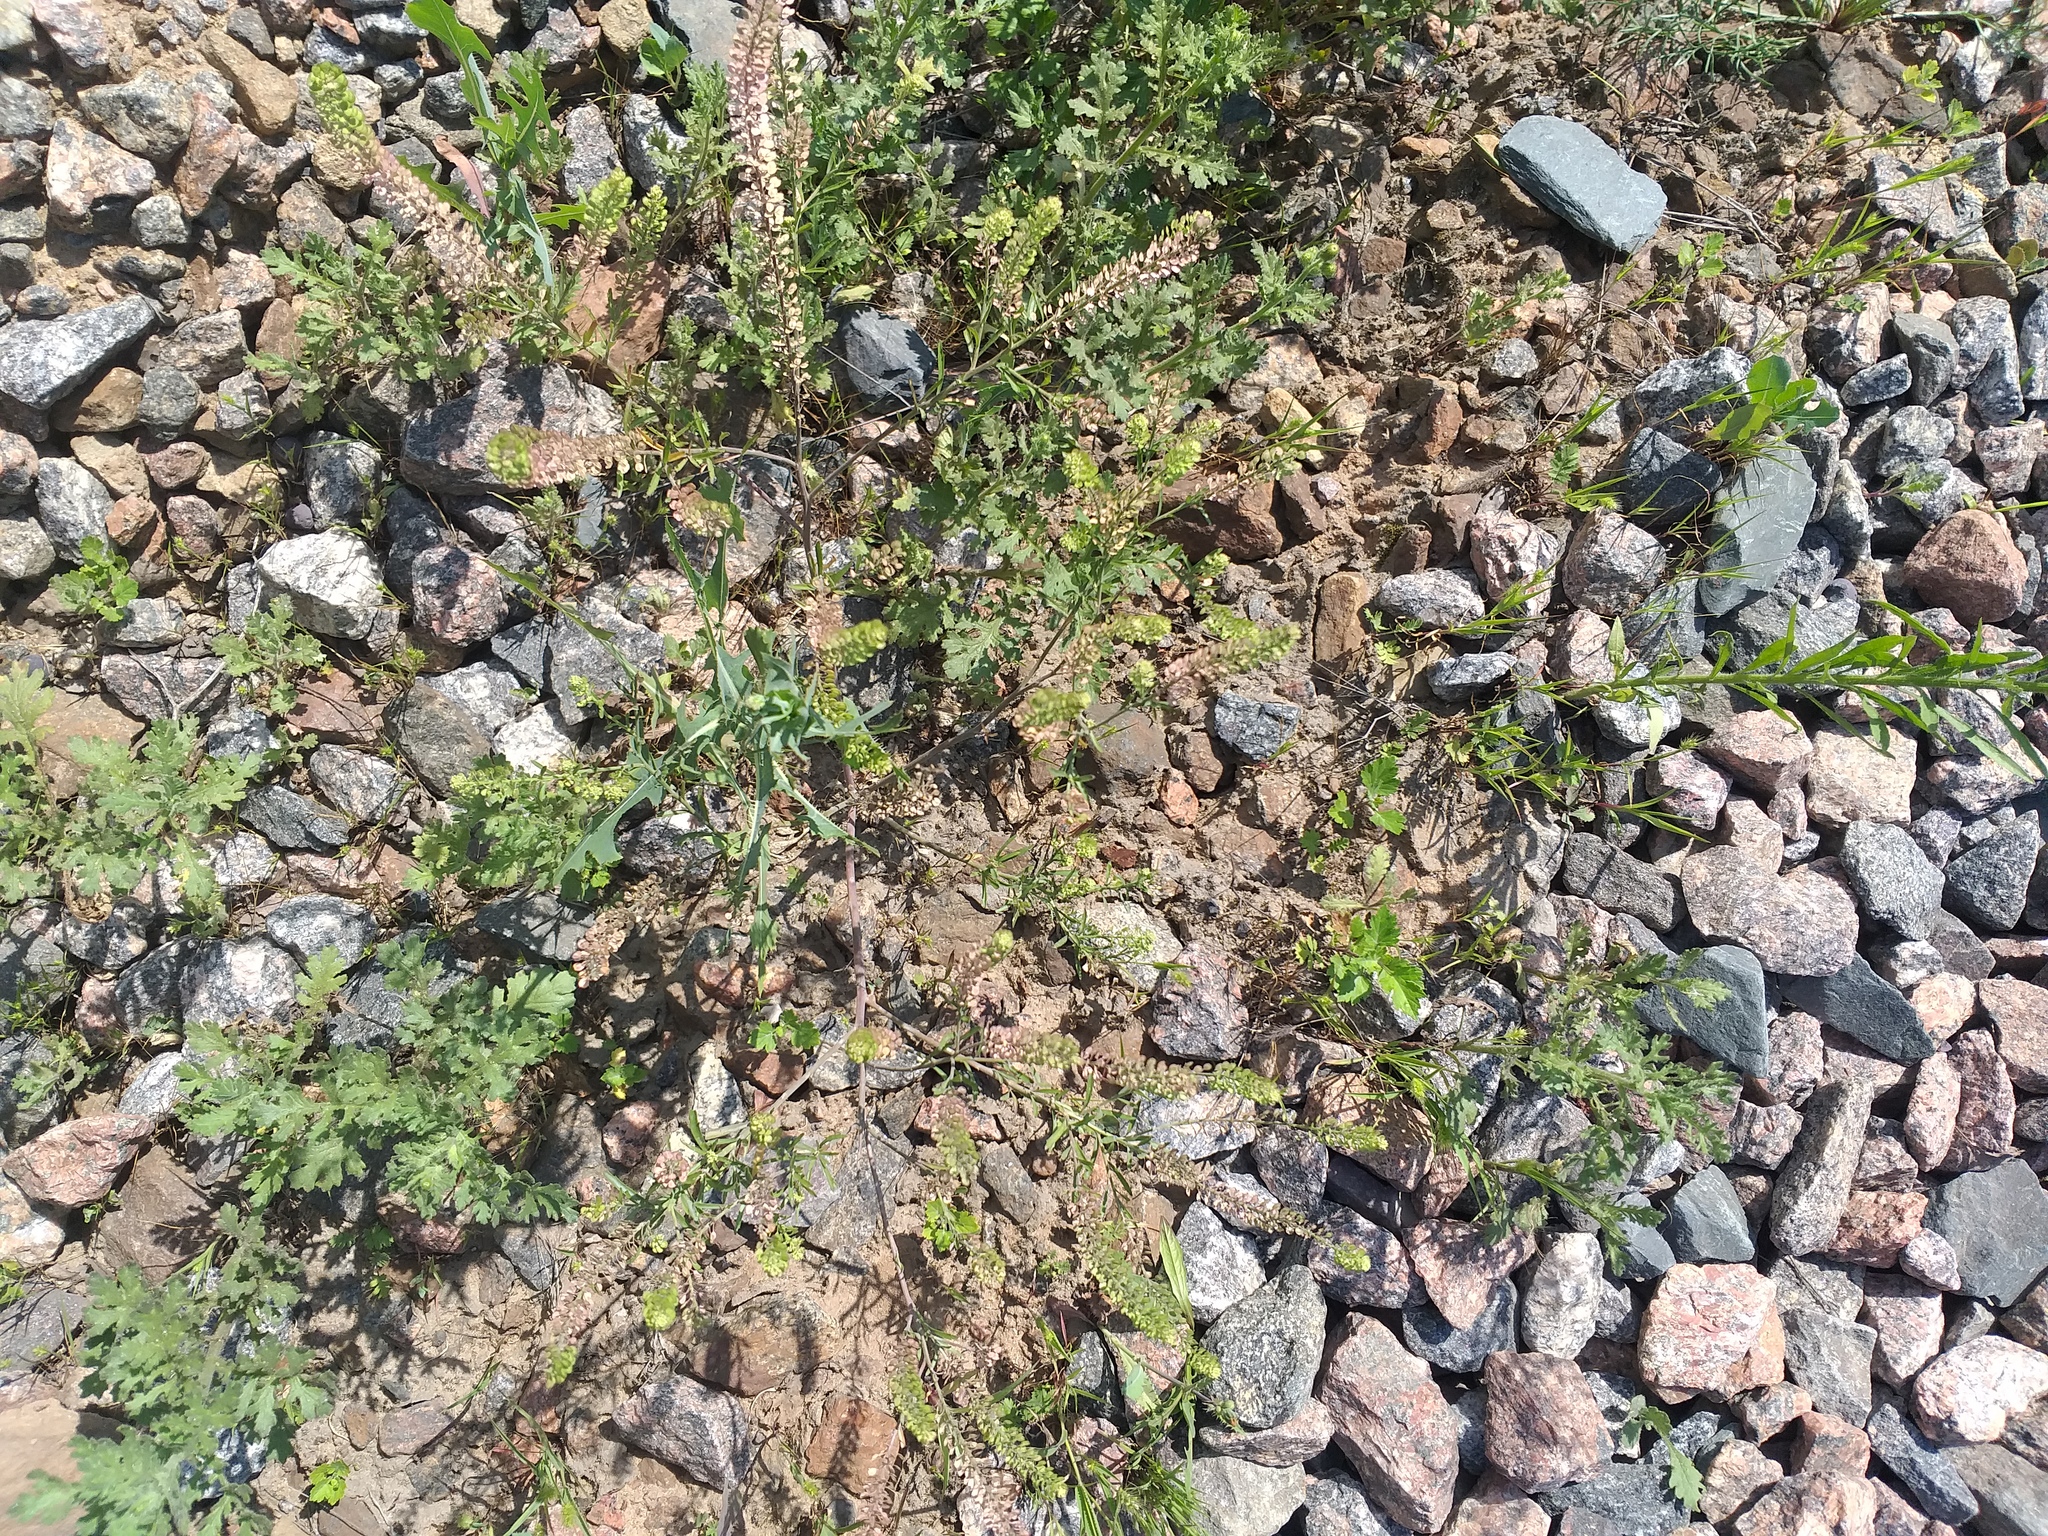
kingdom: Plantae
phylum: Tracheophyta
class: Magnoliopsida
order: Brassicales
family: Brassicaceae
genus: Lepidium
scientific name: Lepidium densiflorum
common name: Miner's pepperwort
